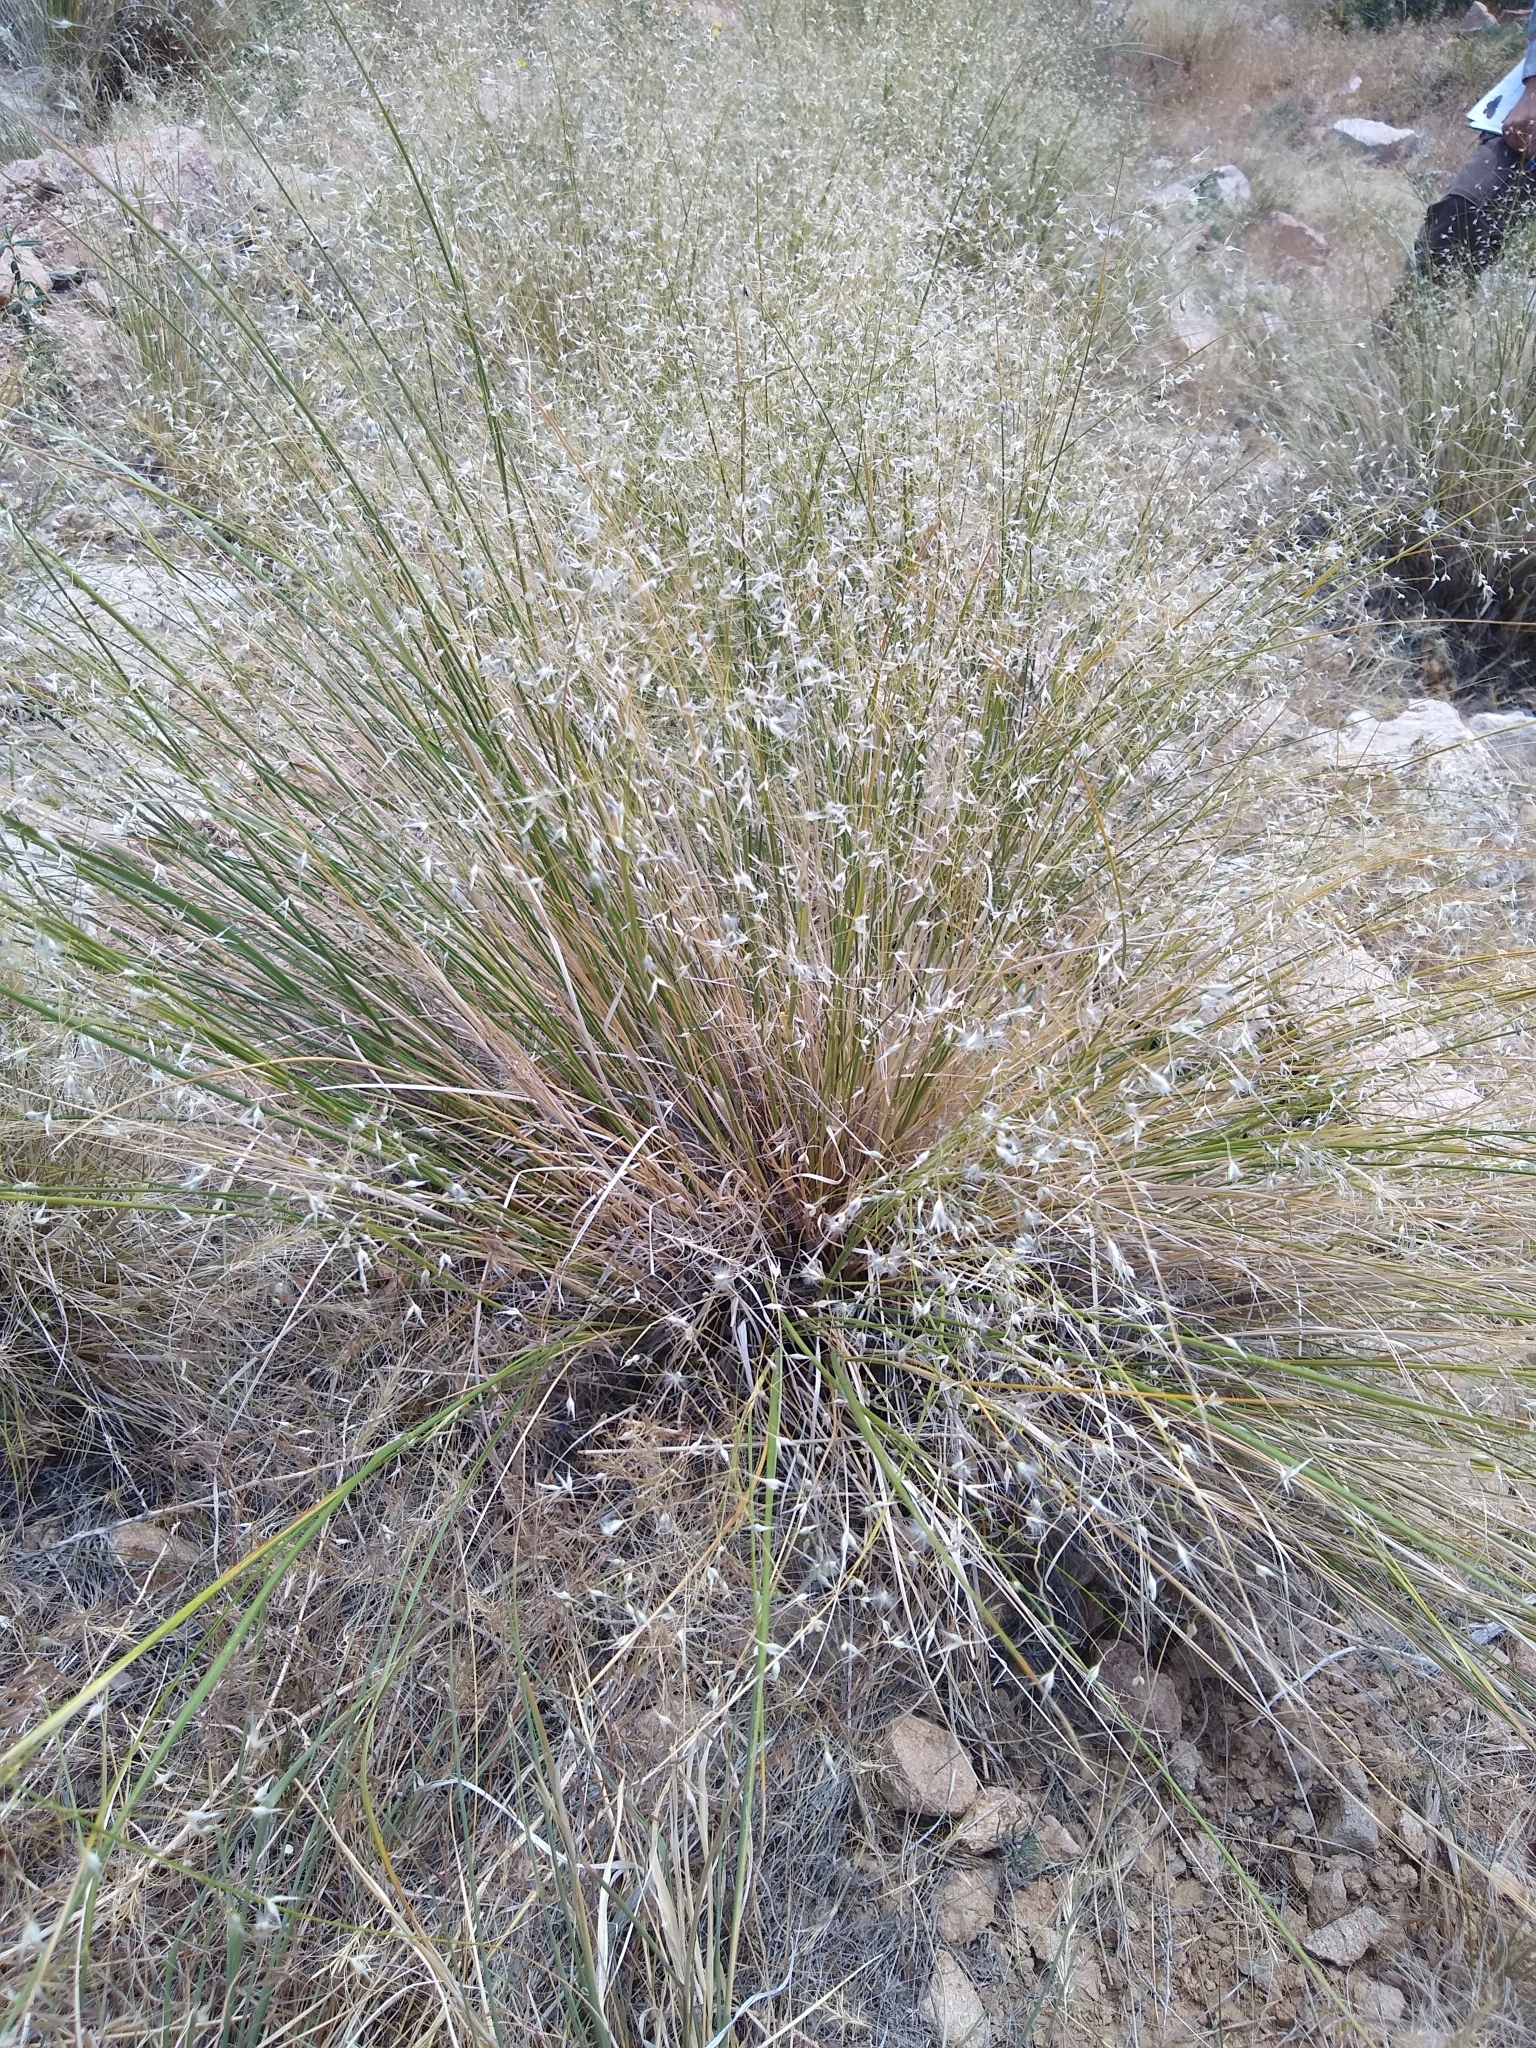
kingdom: Plantae
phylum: Tracheophyta
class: Liliopsida
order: Poales
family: Poaceae
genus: Eriocoma
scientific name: Eriocoma hymenoides
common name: Indian mountain ricegrass
